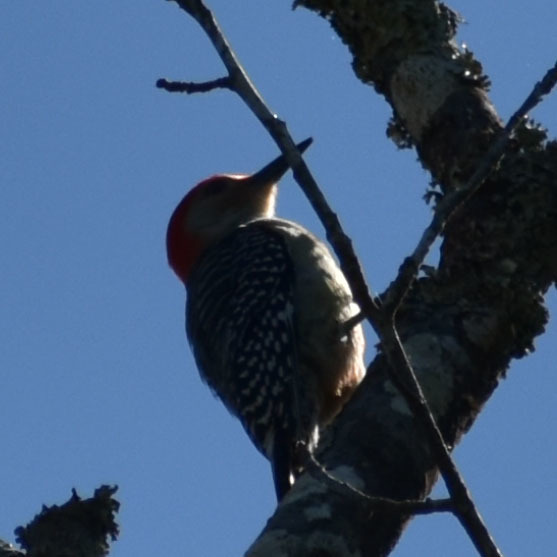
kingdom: Animalia
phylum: Chordata
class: Aves
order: Piciformes
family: Picidae
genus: Melanerpes
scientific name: Melanerpes carolinus
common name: Red-bellied woodpecker
